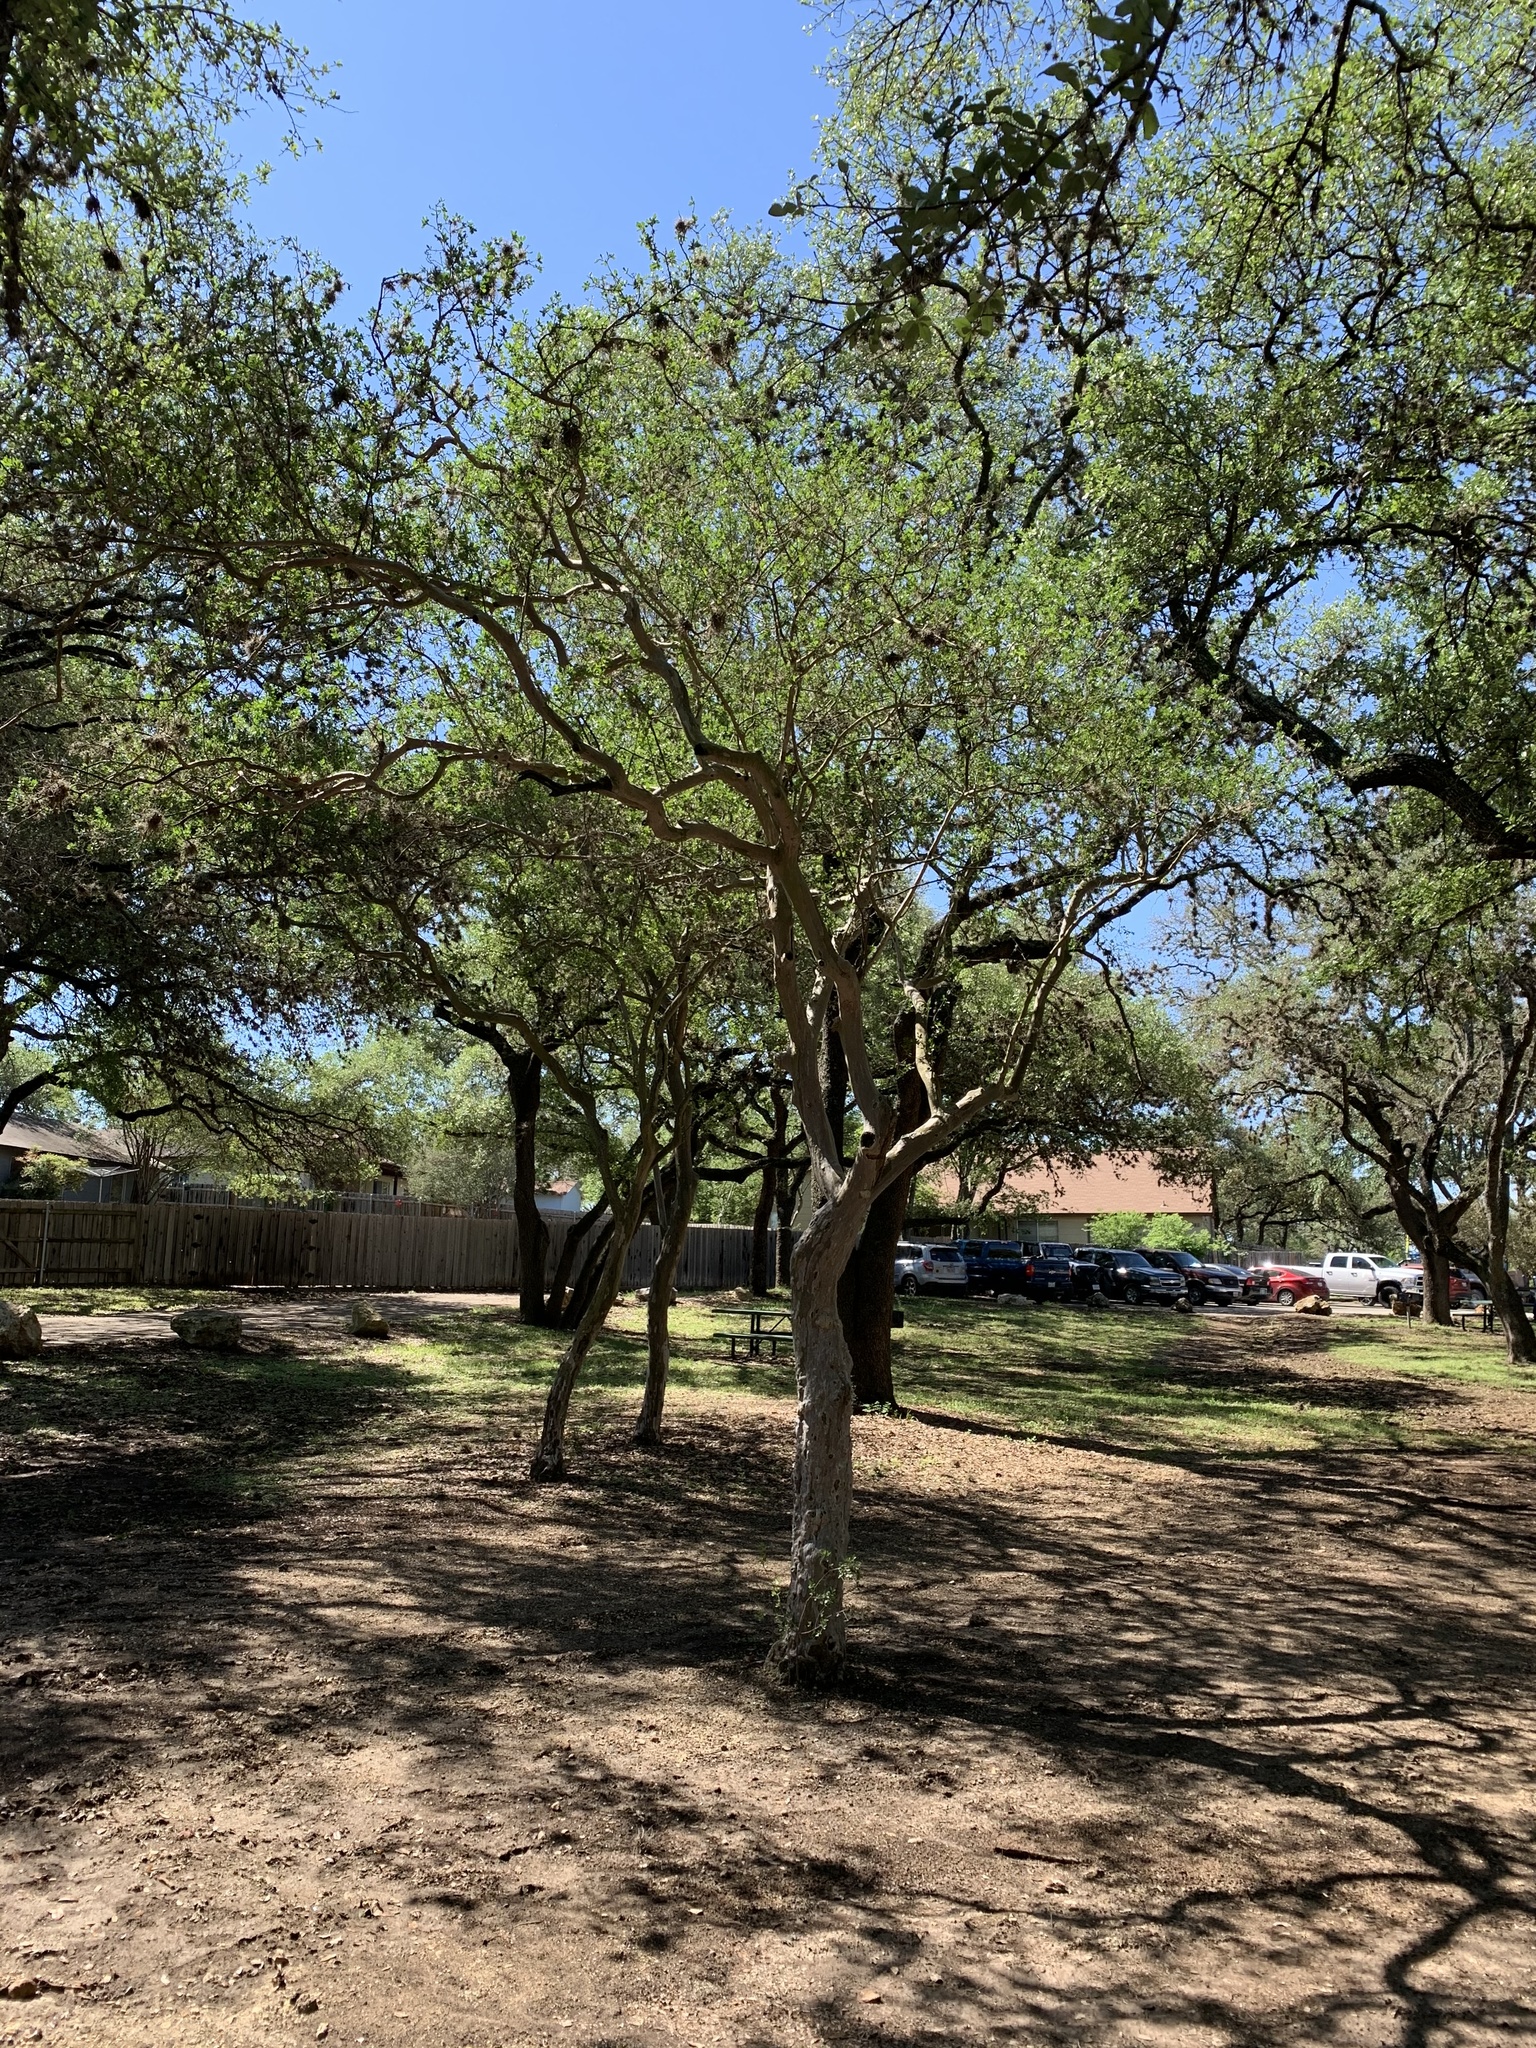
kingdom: Plantae
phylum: Tracheophyta
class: Magnoliopsida
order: Ericales
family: Ebenaceae
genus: Diospyros
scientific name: Diospyros texana
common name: Texas persimmon
